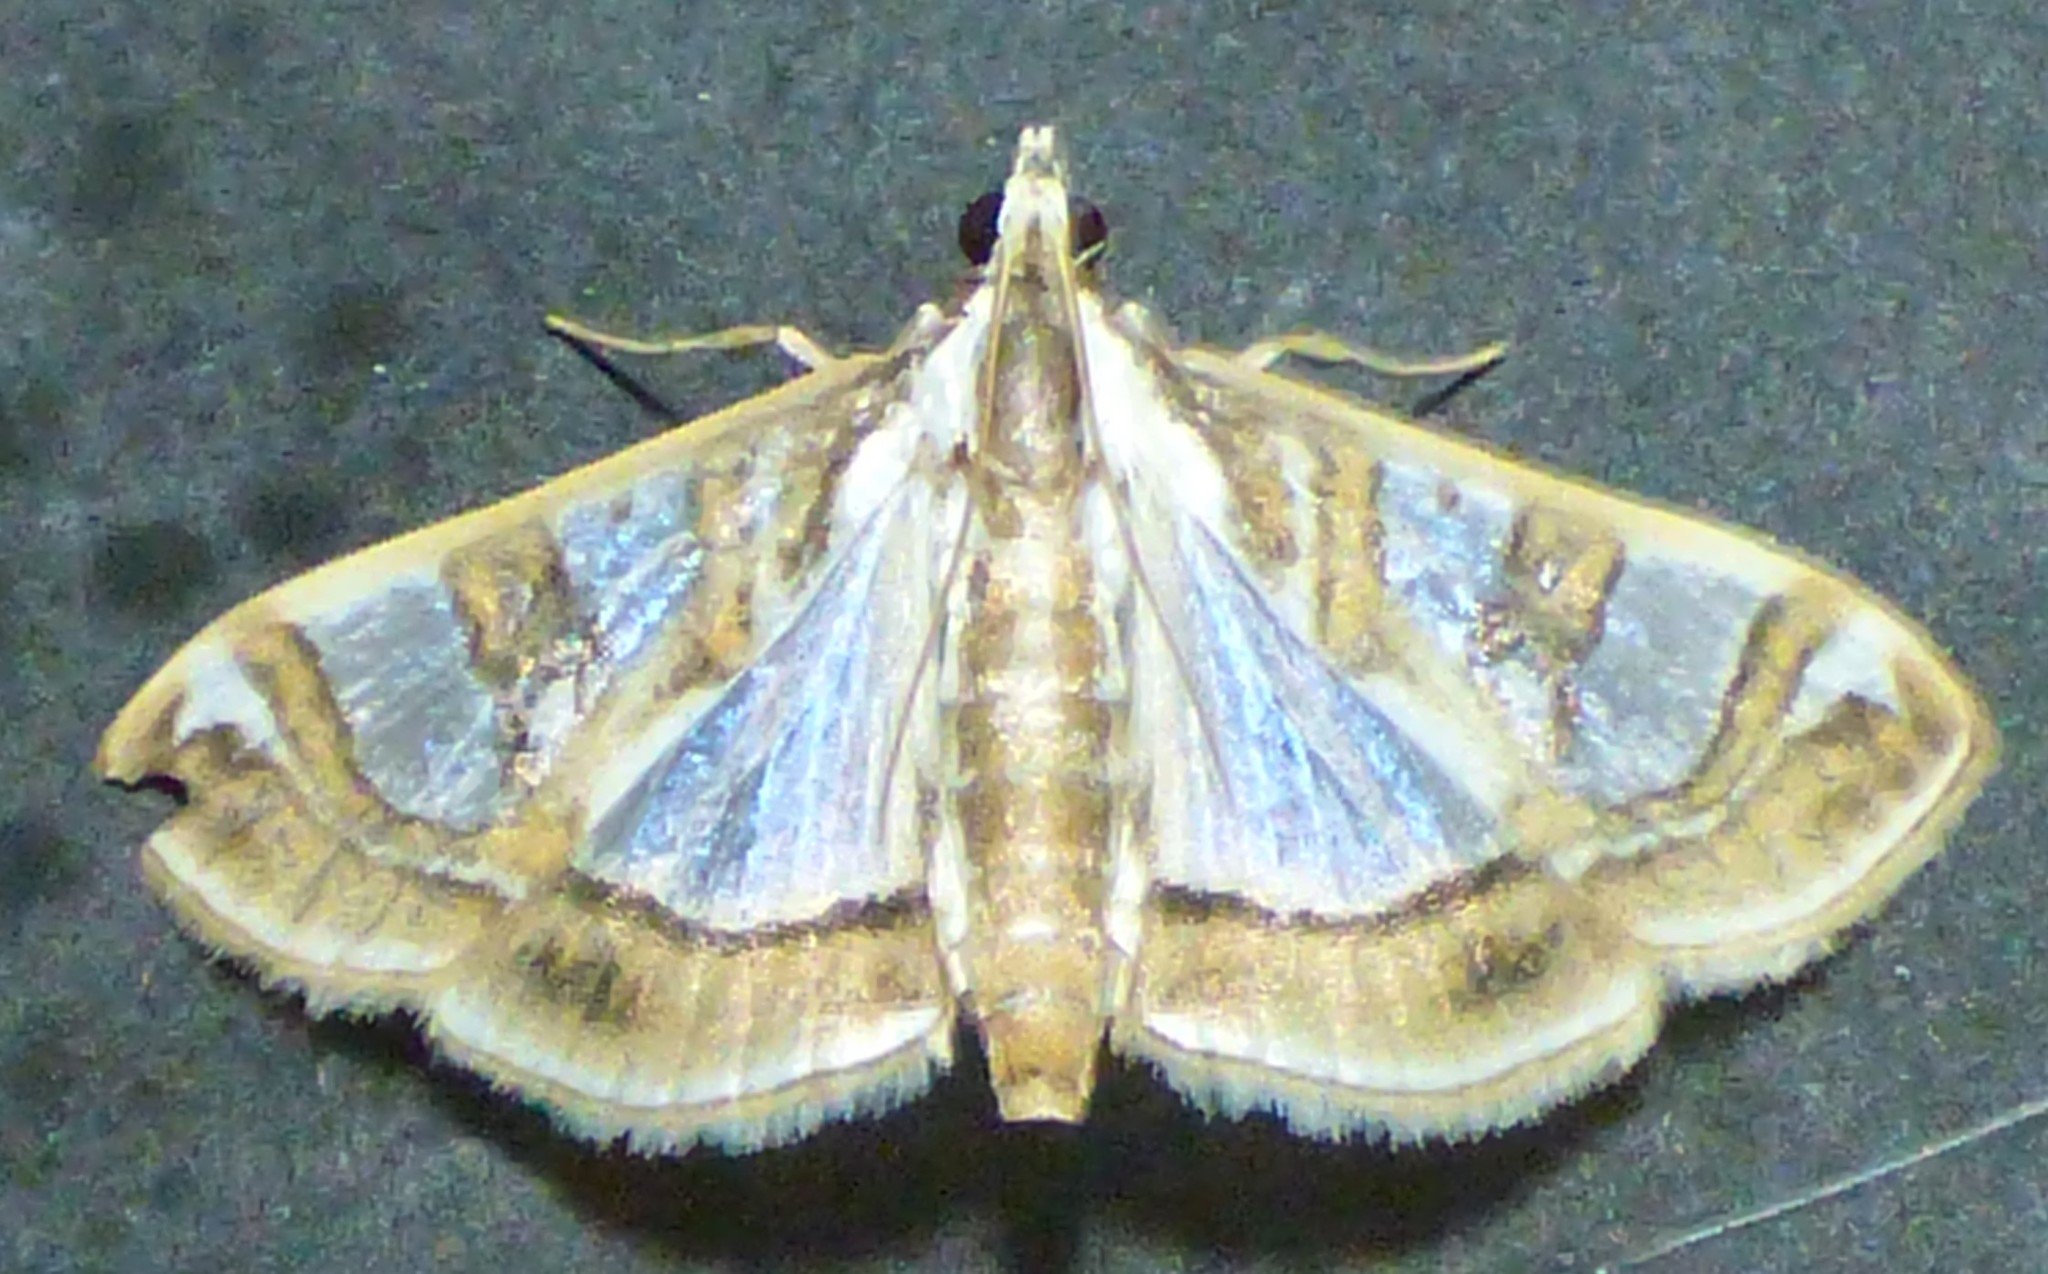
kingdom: Animalia
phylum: Arthropoda
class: Insecta
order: Lepidoptera
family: Crambidae
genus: Glyphodes
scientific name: Glyphodes pyloalis
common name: Lesser mulberry snout moth
